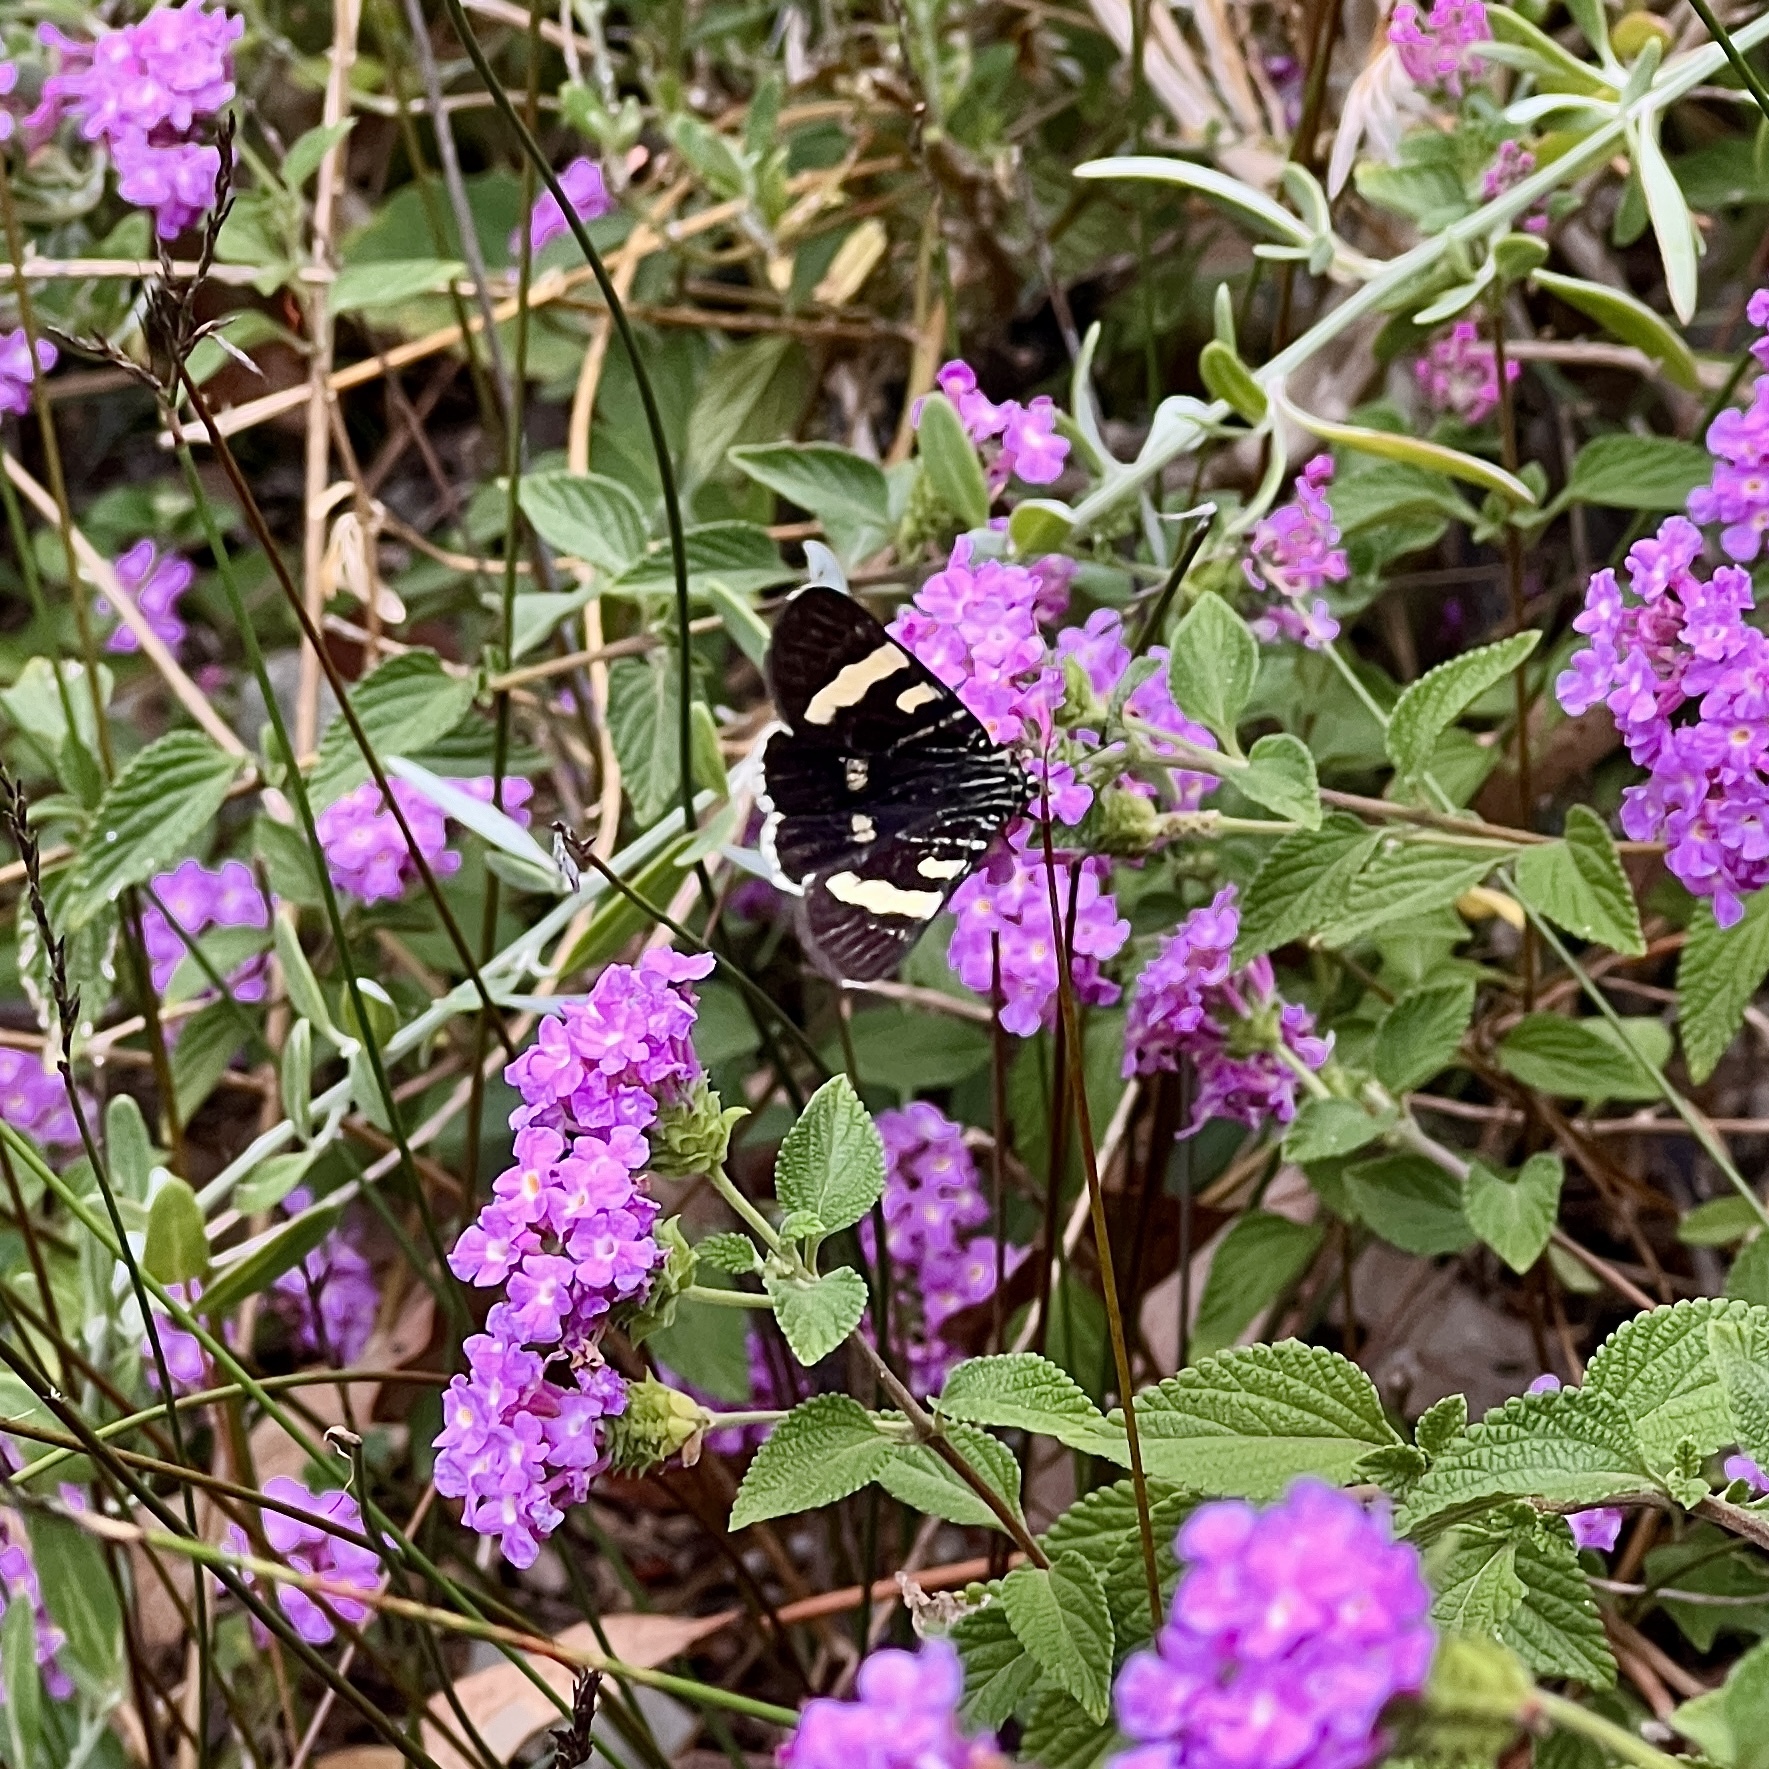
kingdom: Animalia
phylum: Arthropoda
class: Insecta
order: Lepidoptera
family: Noctuidae
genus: Phalaenoides
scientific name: Phalaenoides glycinae
